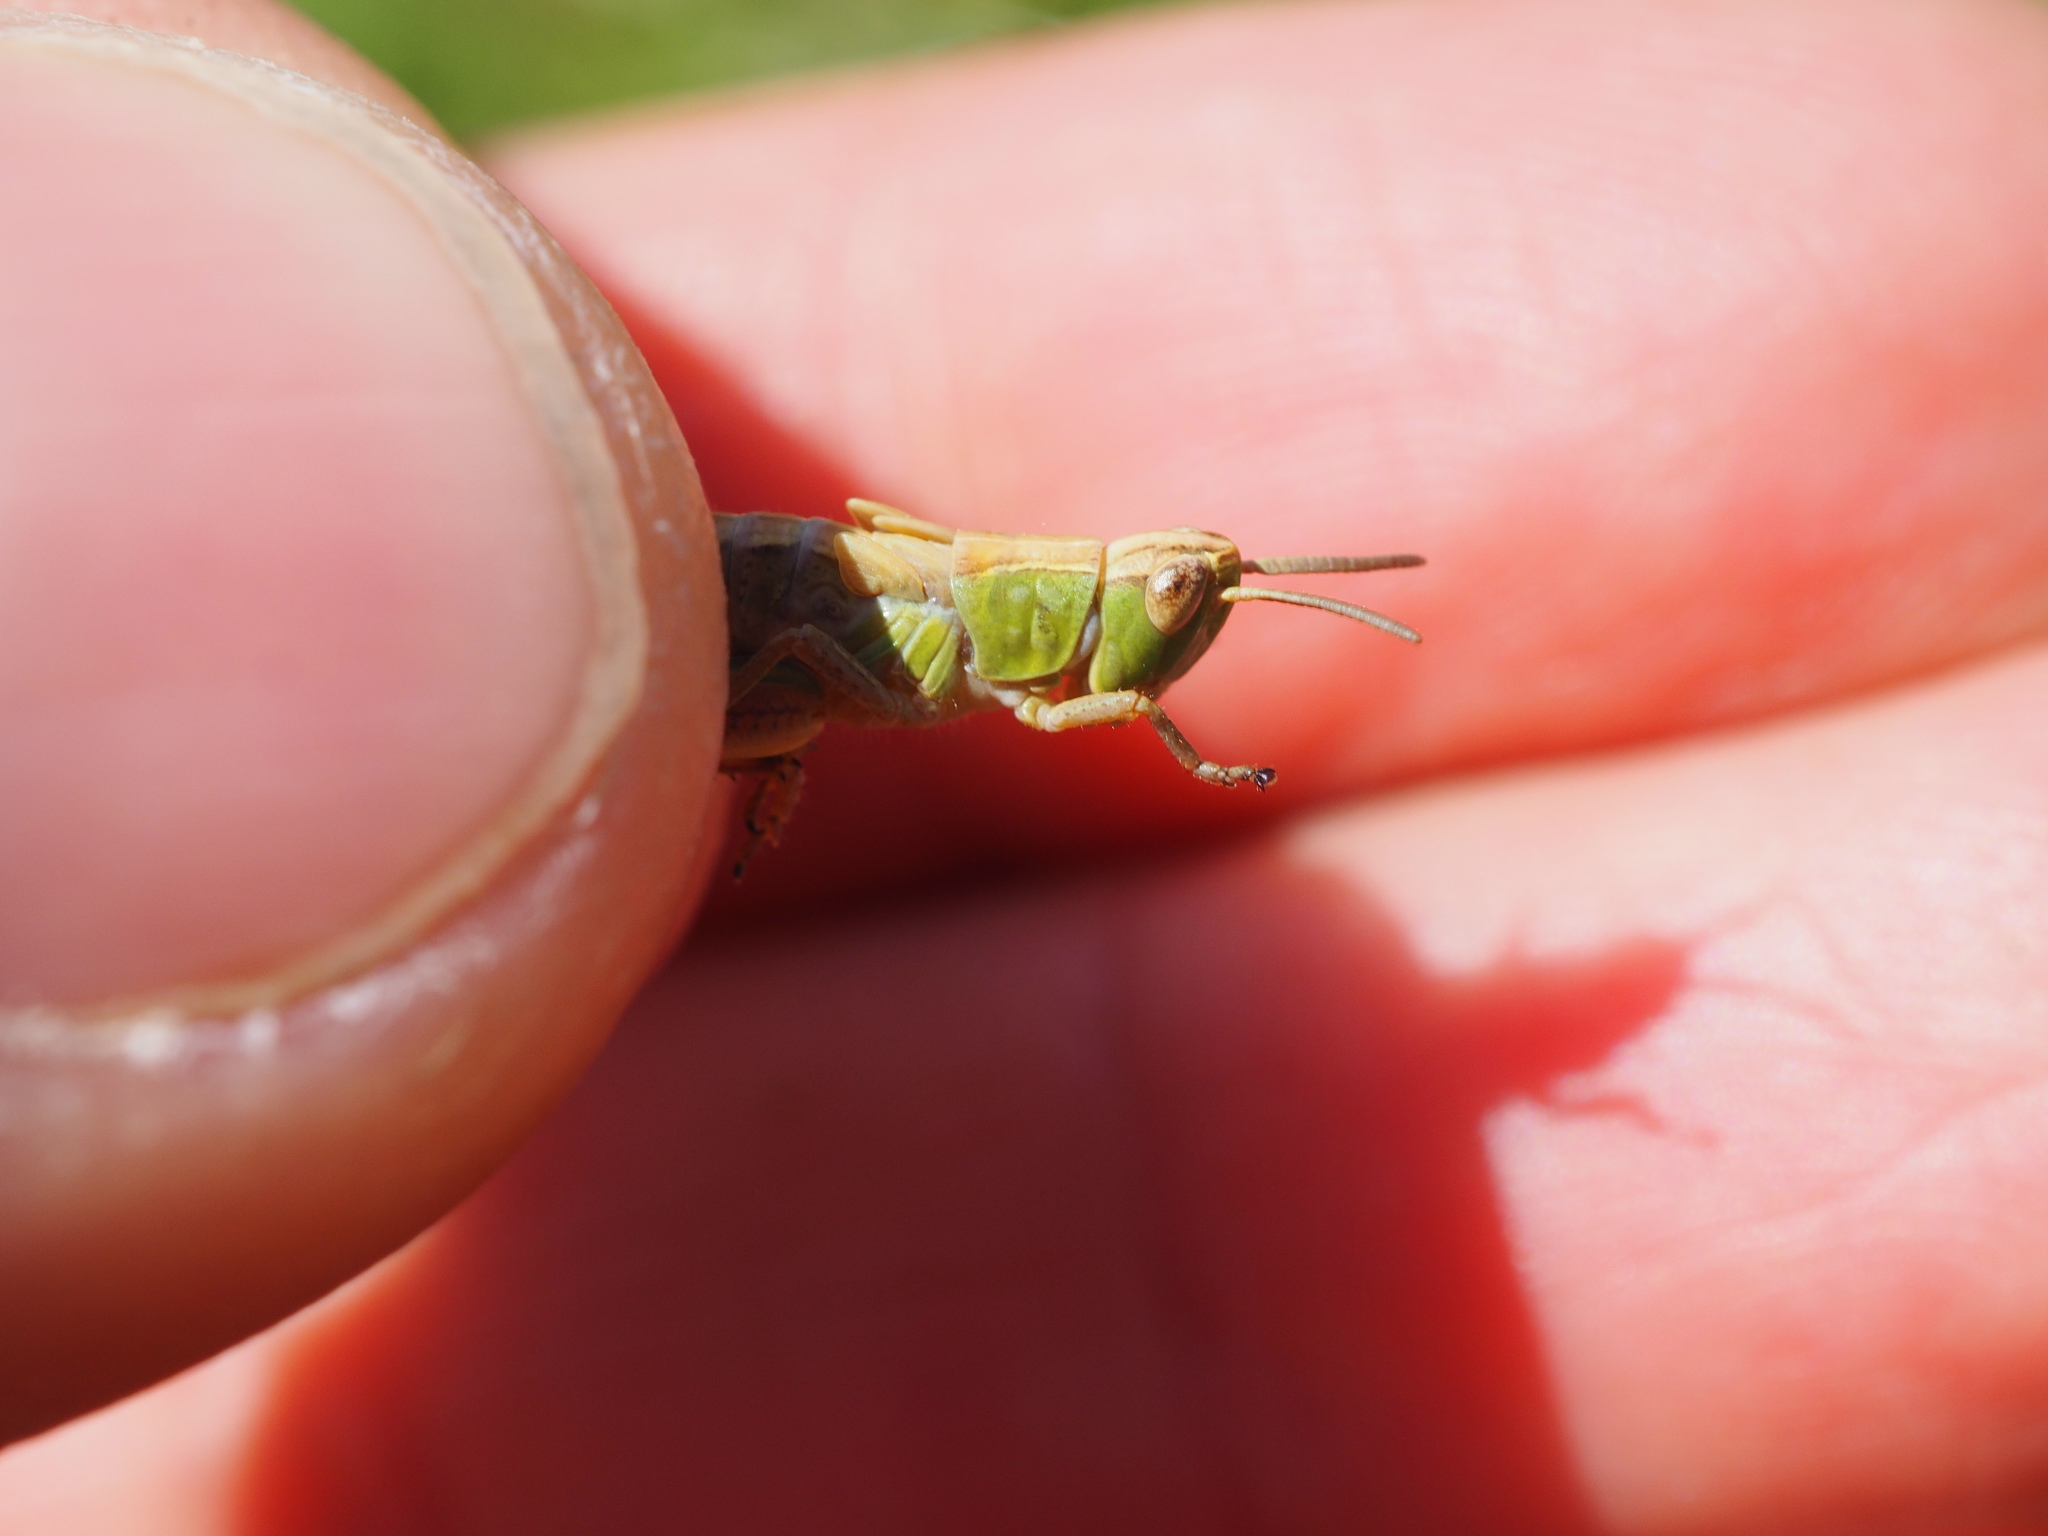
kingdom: Animalia
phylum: Arthropoda
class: Insecta
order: Orthoptera
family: Acrididae
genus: Pseudochorthippus
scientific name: Pseudochorthippus parallelus
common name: Meadow grasshopper
